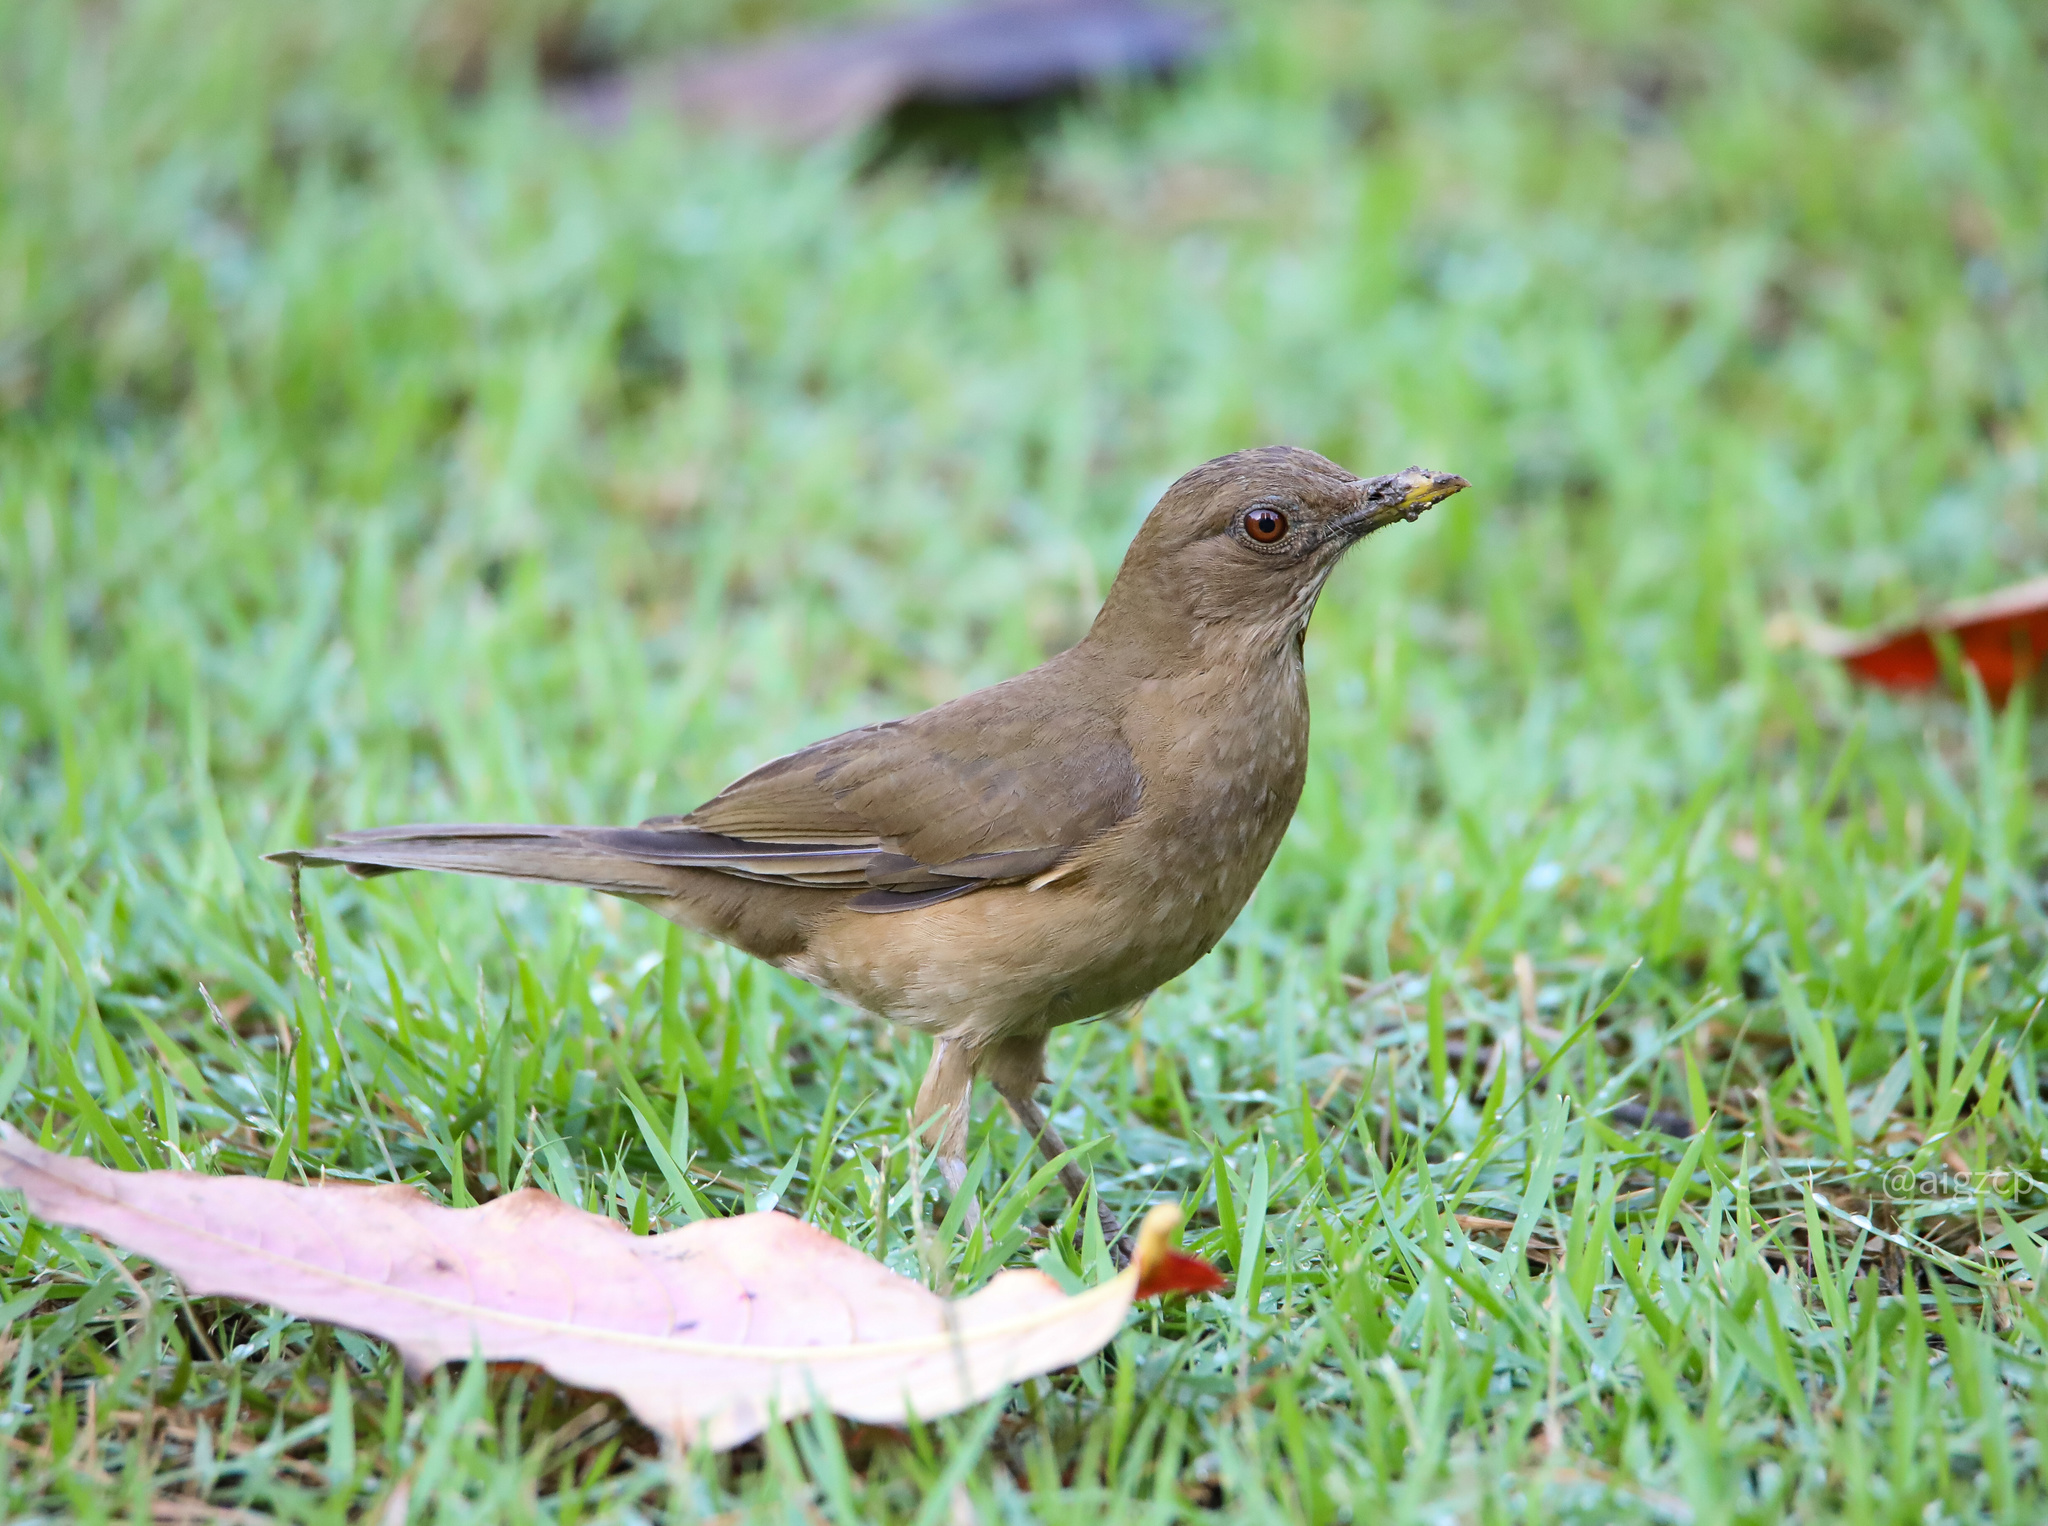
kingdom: Animalia
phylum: Chordata
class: Aves
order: Passeriformes
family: Turdidae
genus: Turdus
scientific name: Turdus grayi
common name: Clay-colored thrush
